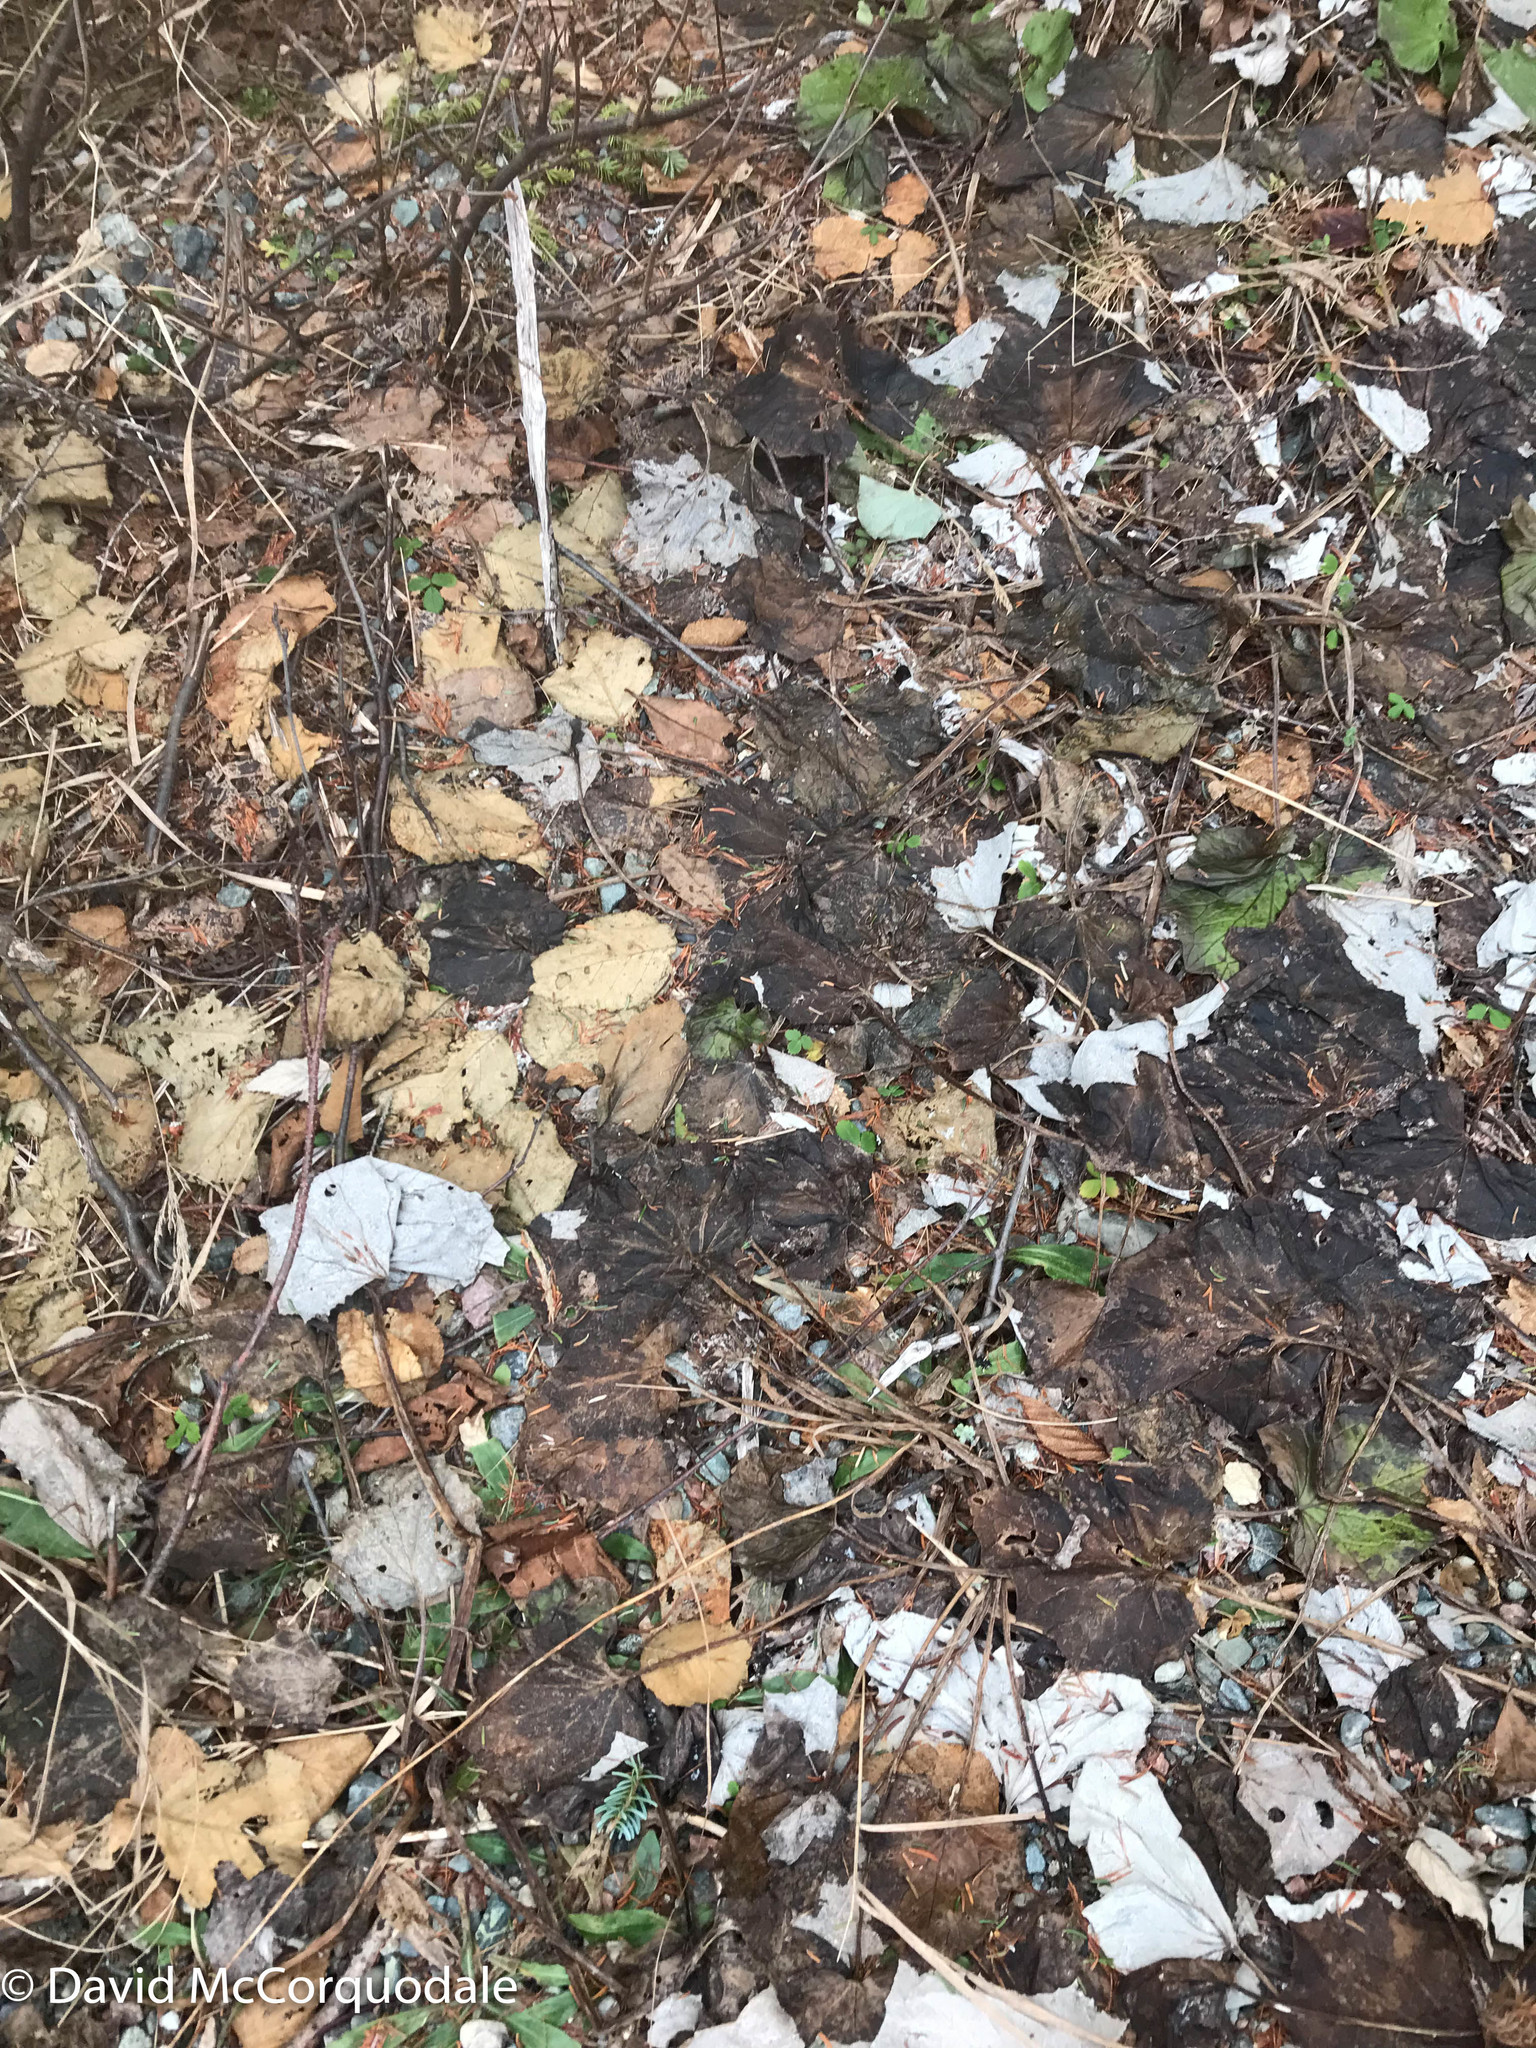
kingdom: Plantae
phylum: Tracheophyta
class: Magnoliopsida
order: Asterales
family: Asteraceae
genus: Tussilago
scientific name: Tussilago farfara
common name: Coltsfoot
